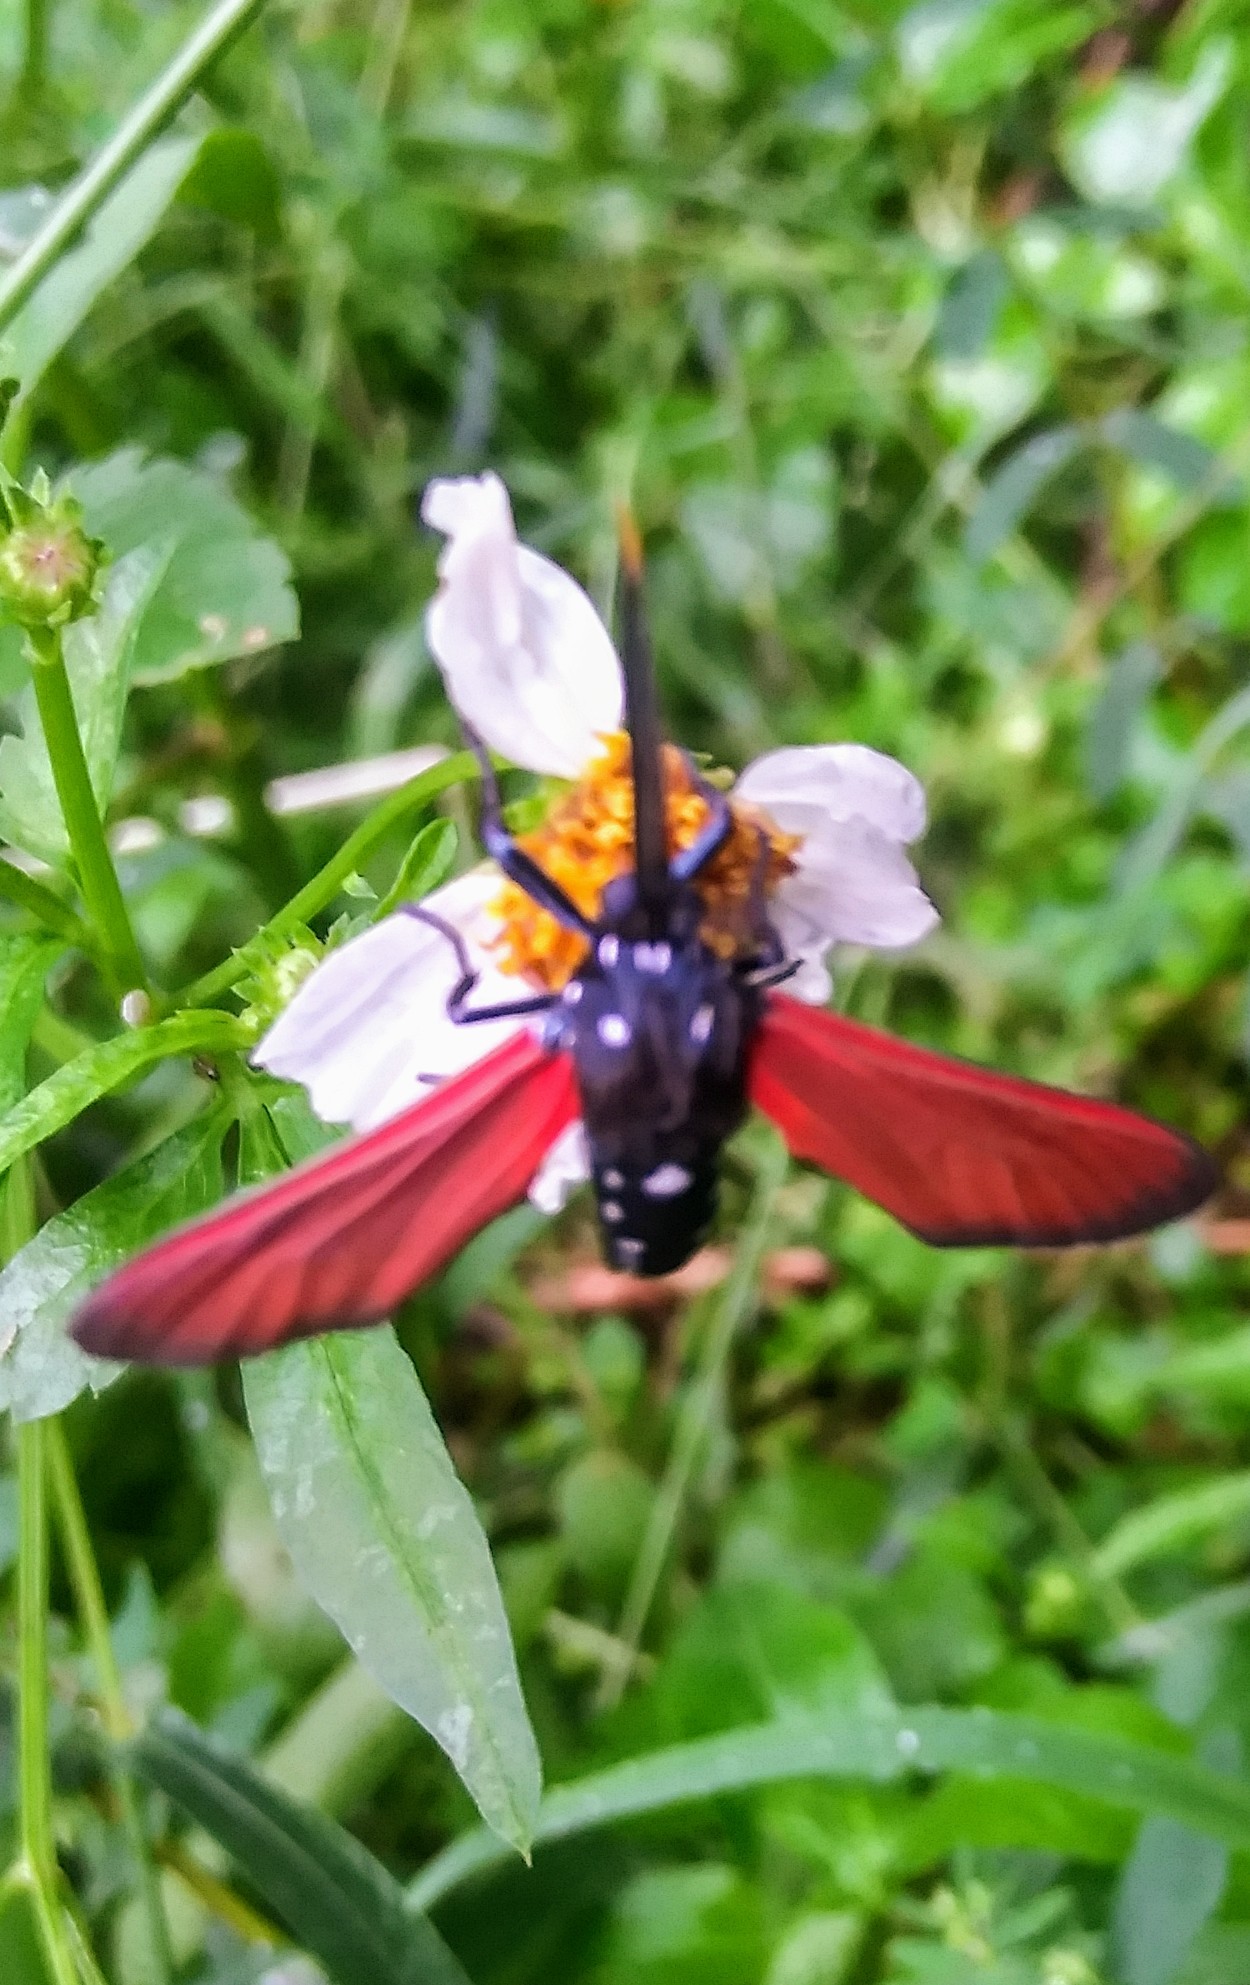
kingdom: Animalia
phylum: Arthropoda
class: Insecta
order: Lepidoptera
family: Erebidae
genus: Empyreuma
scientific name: Empyreuma pugione
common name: Spotted oleander caterpillar moth
